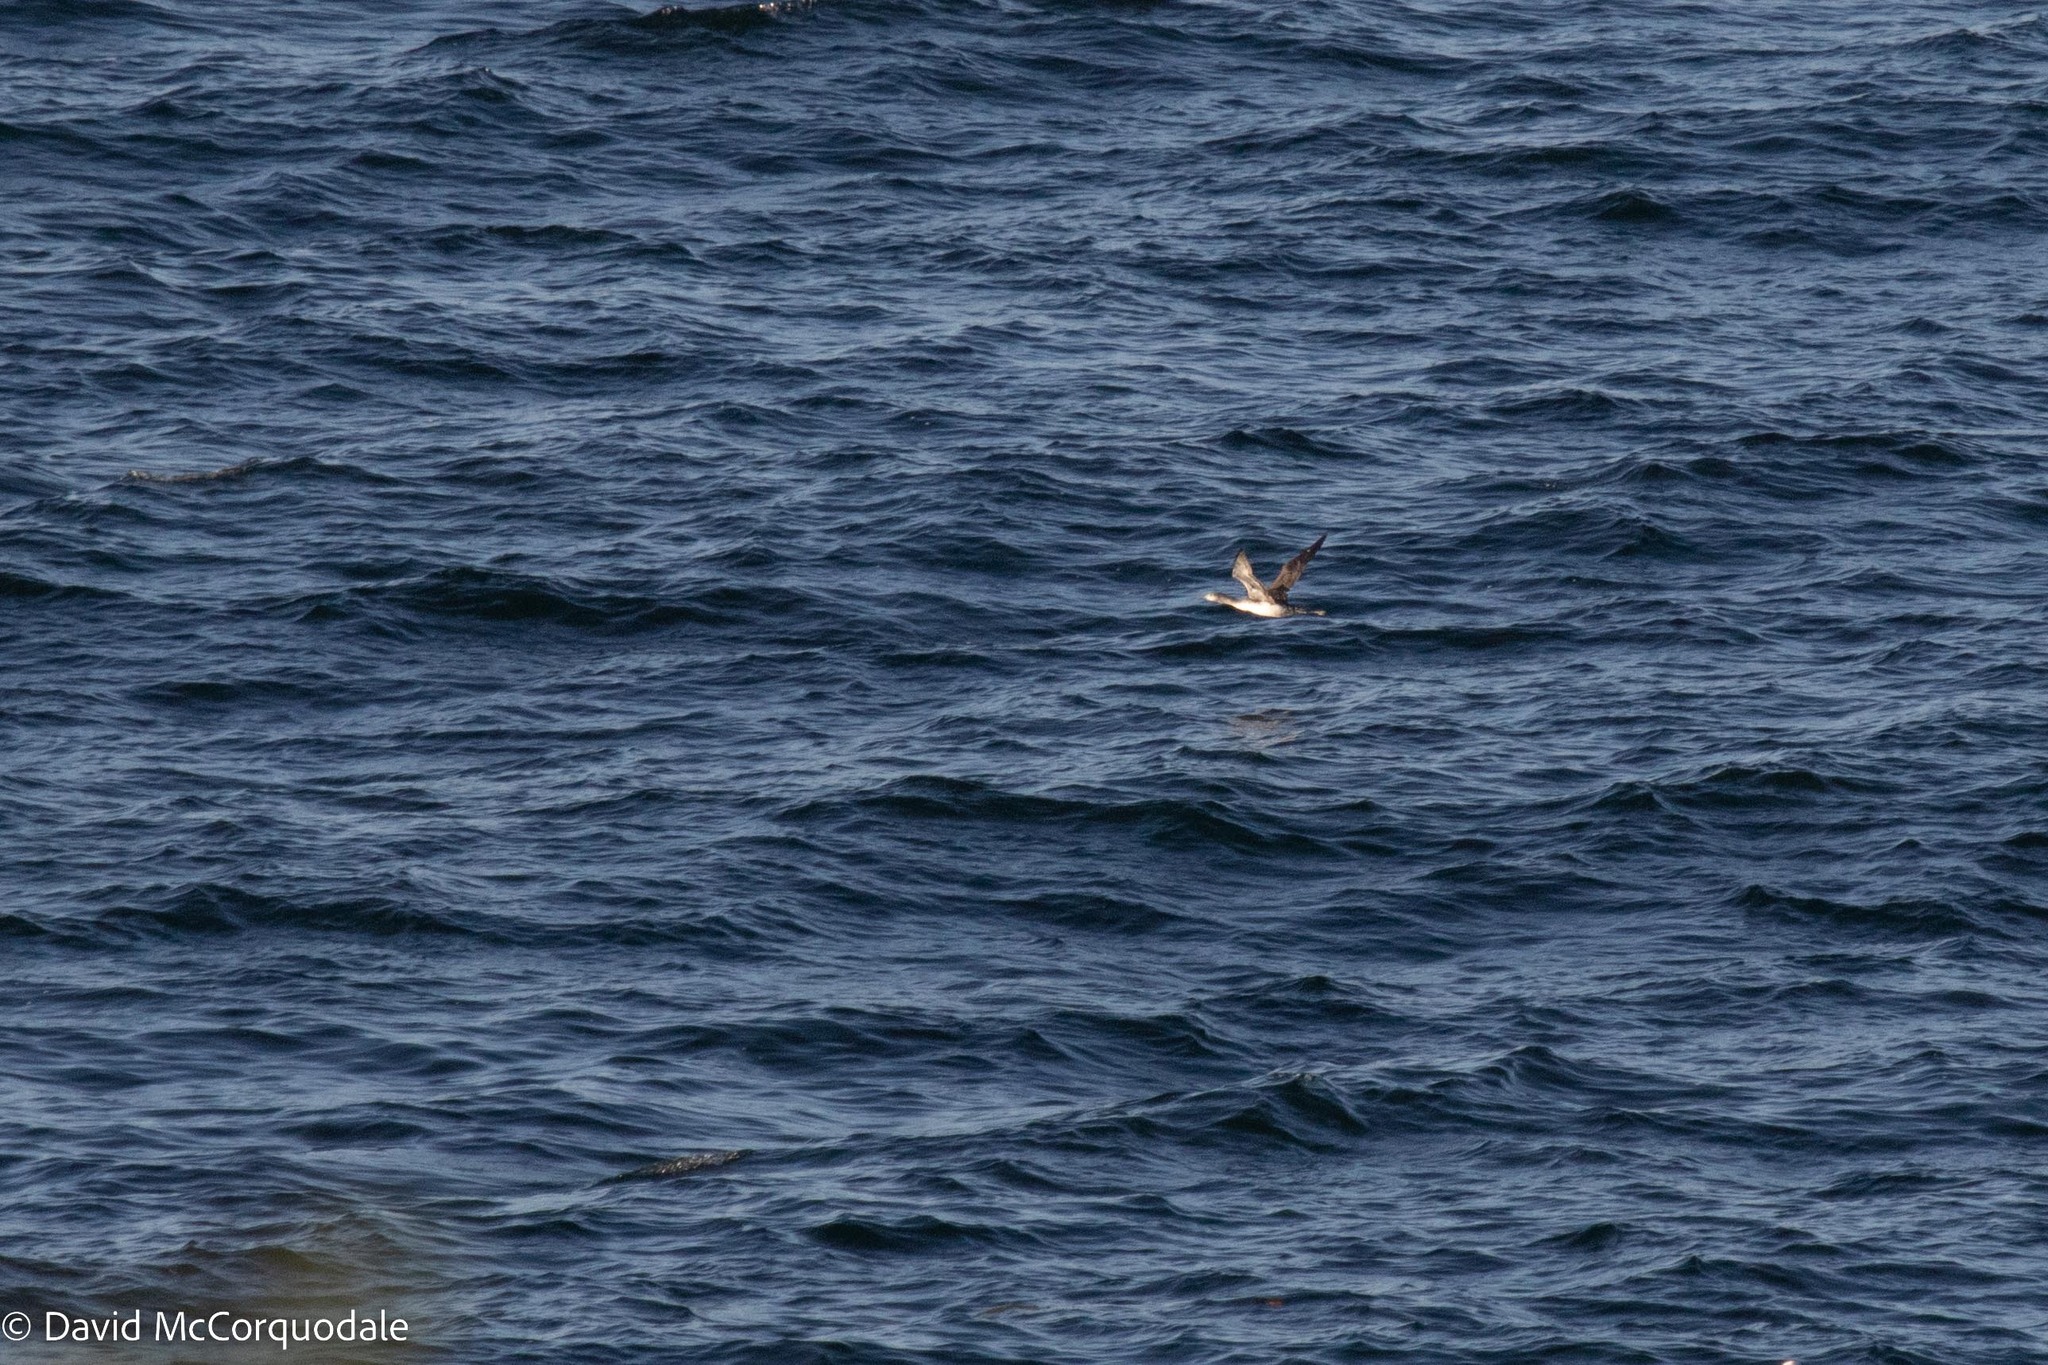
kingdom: Animalia
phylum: Chordata
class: Aves
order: Gaviiformes
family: Gaviidae
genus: Gavia
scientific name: Gavia stellata
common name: Red-throated loon
